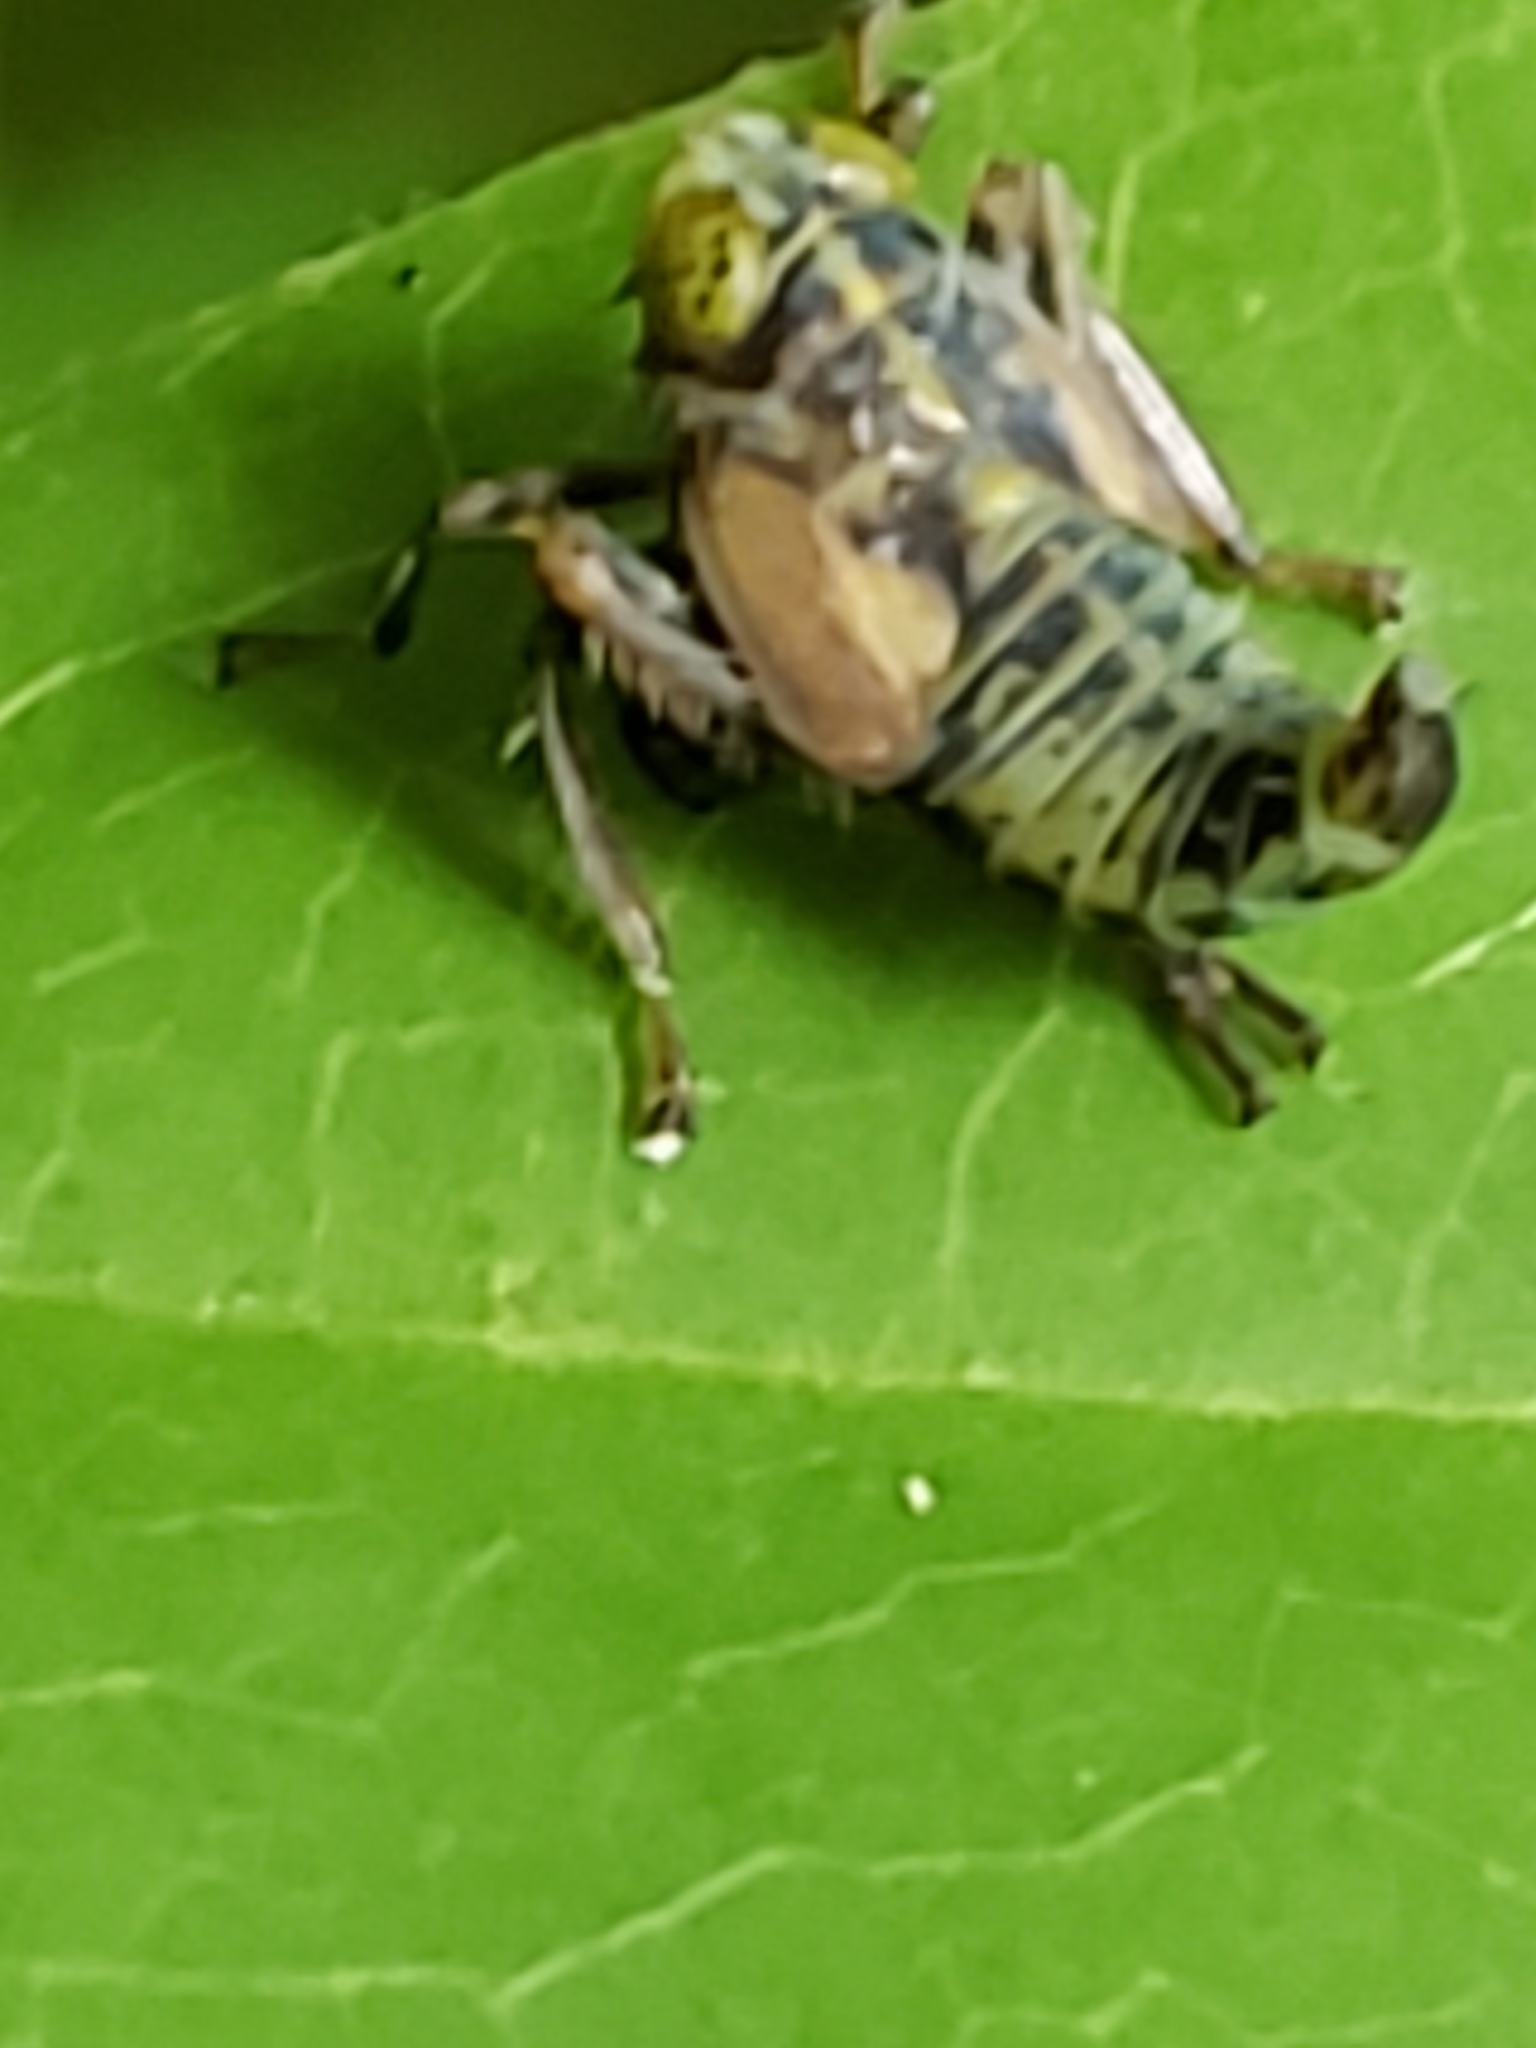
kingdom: Animalia
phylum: Arthropoda
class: Insecta
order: Hemiptera
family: Cicadellidae
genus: Jikradia
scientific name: Jikradia olitoria
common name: Coppery leafhopper
